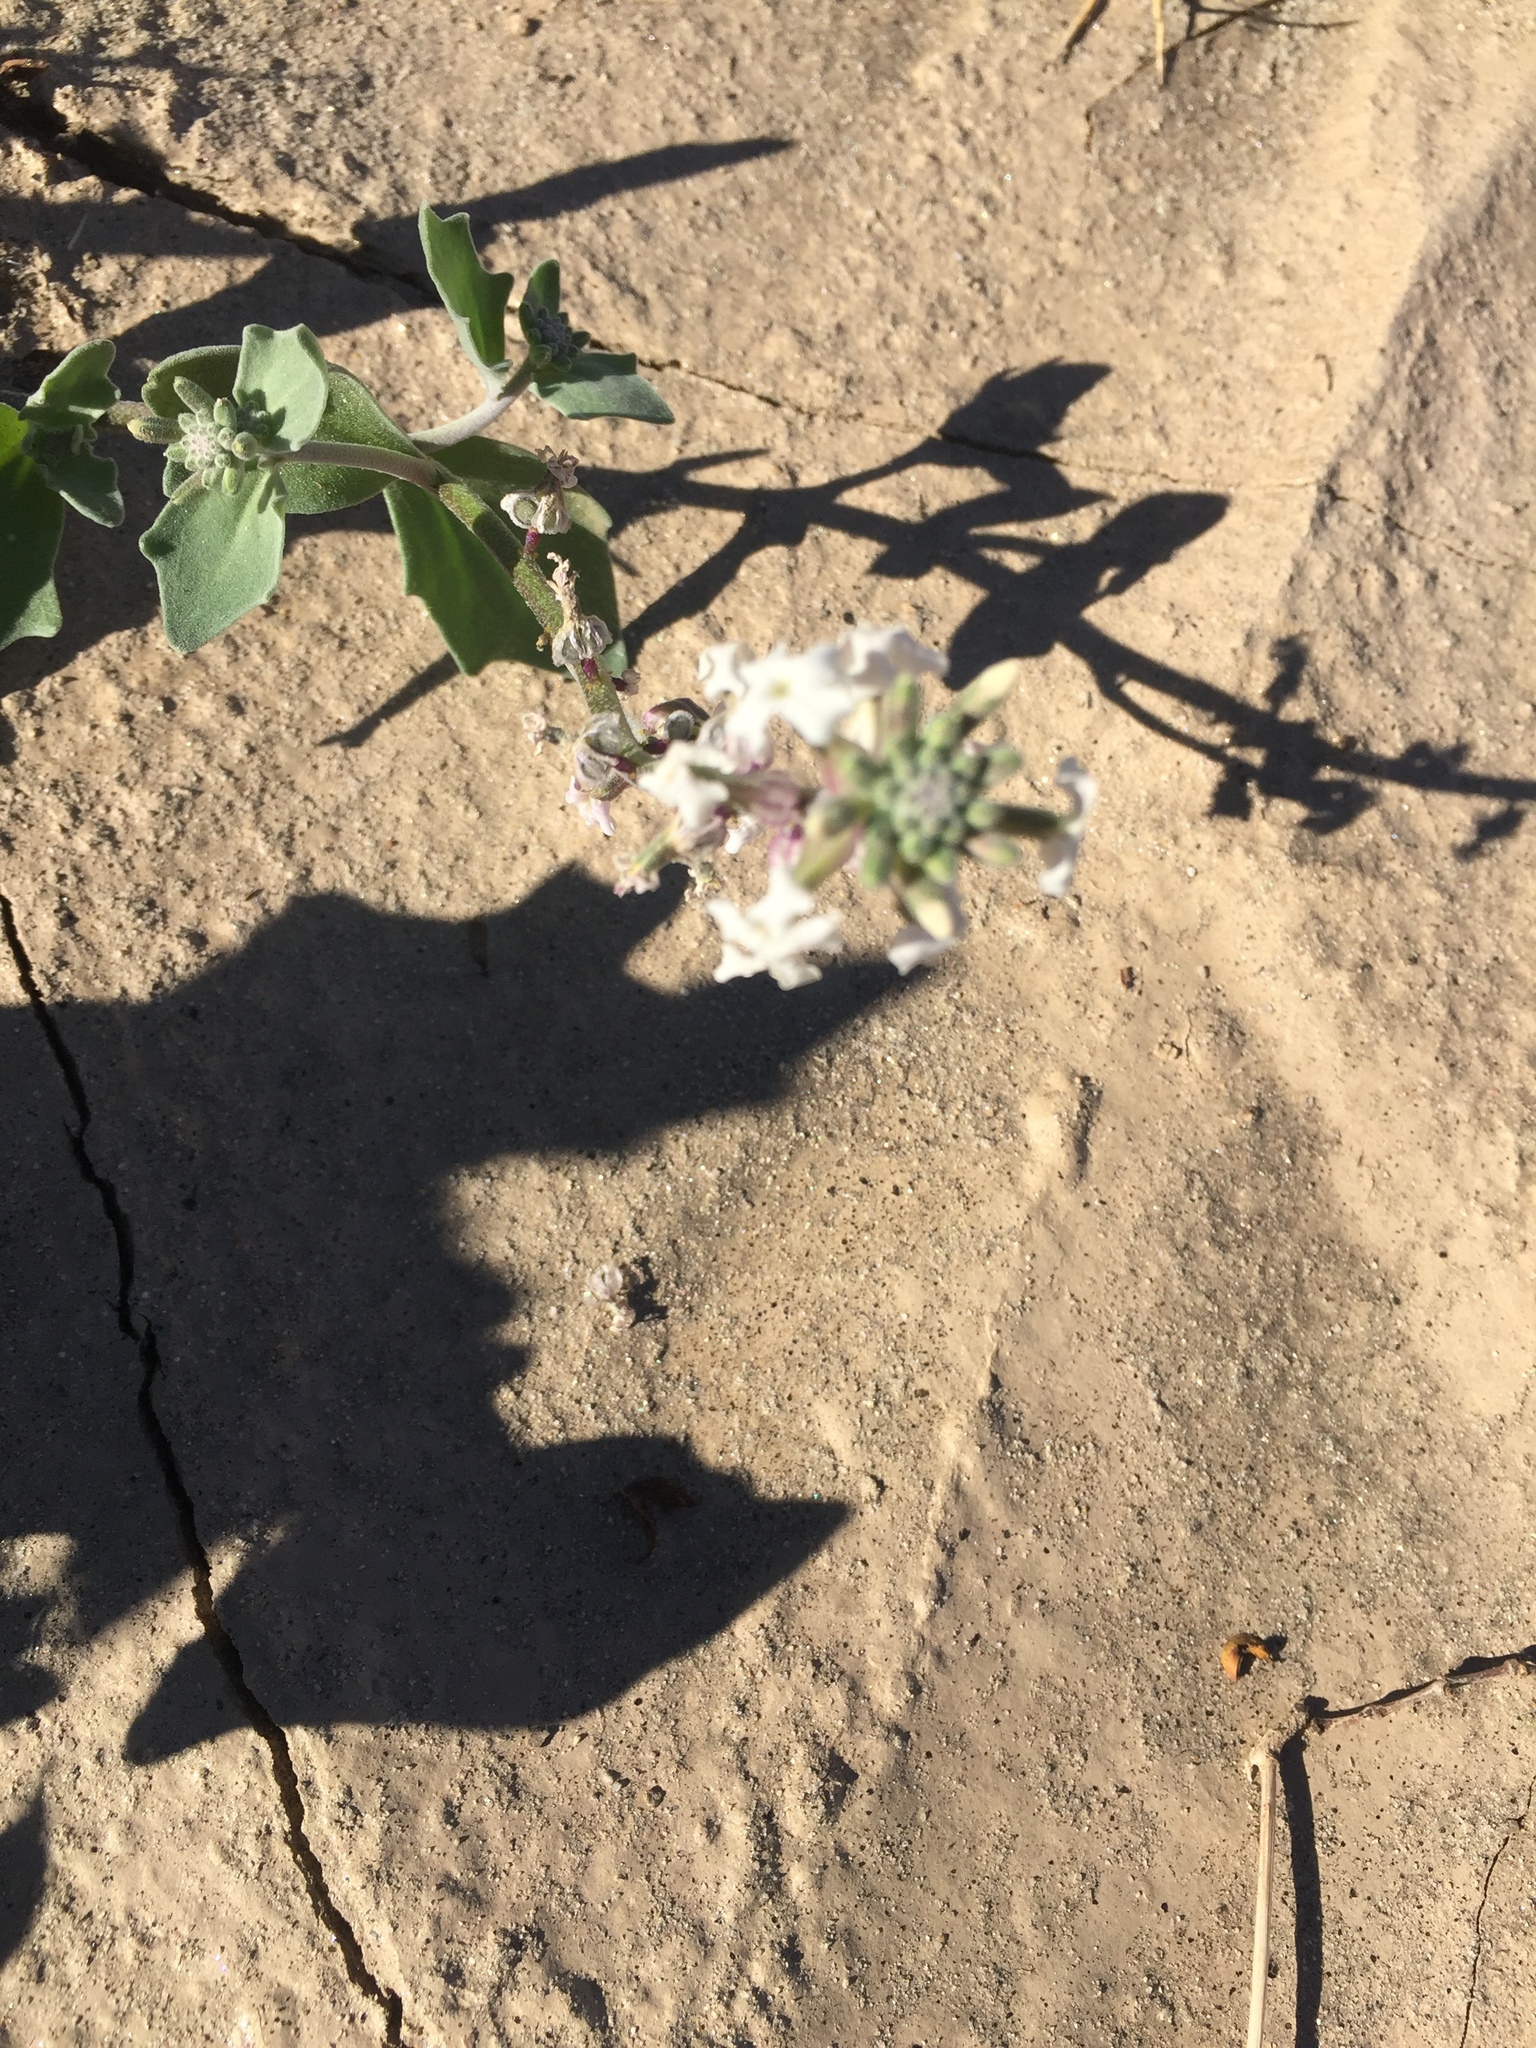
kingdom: Plantae
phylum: Tracheophyta
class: Magnoliopsida
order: Brassicales
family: Brassicaceae
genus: Dithyrea
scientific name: Dithyrea californica
